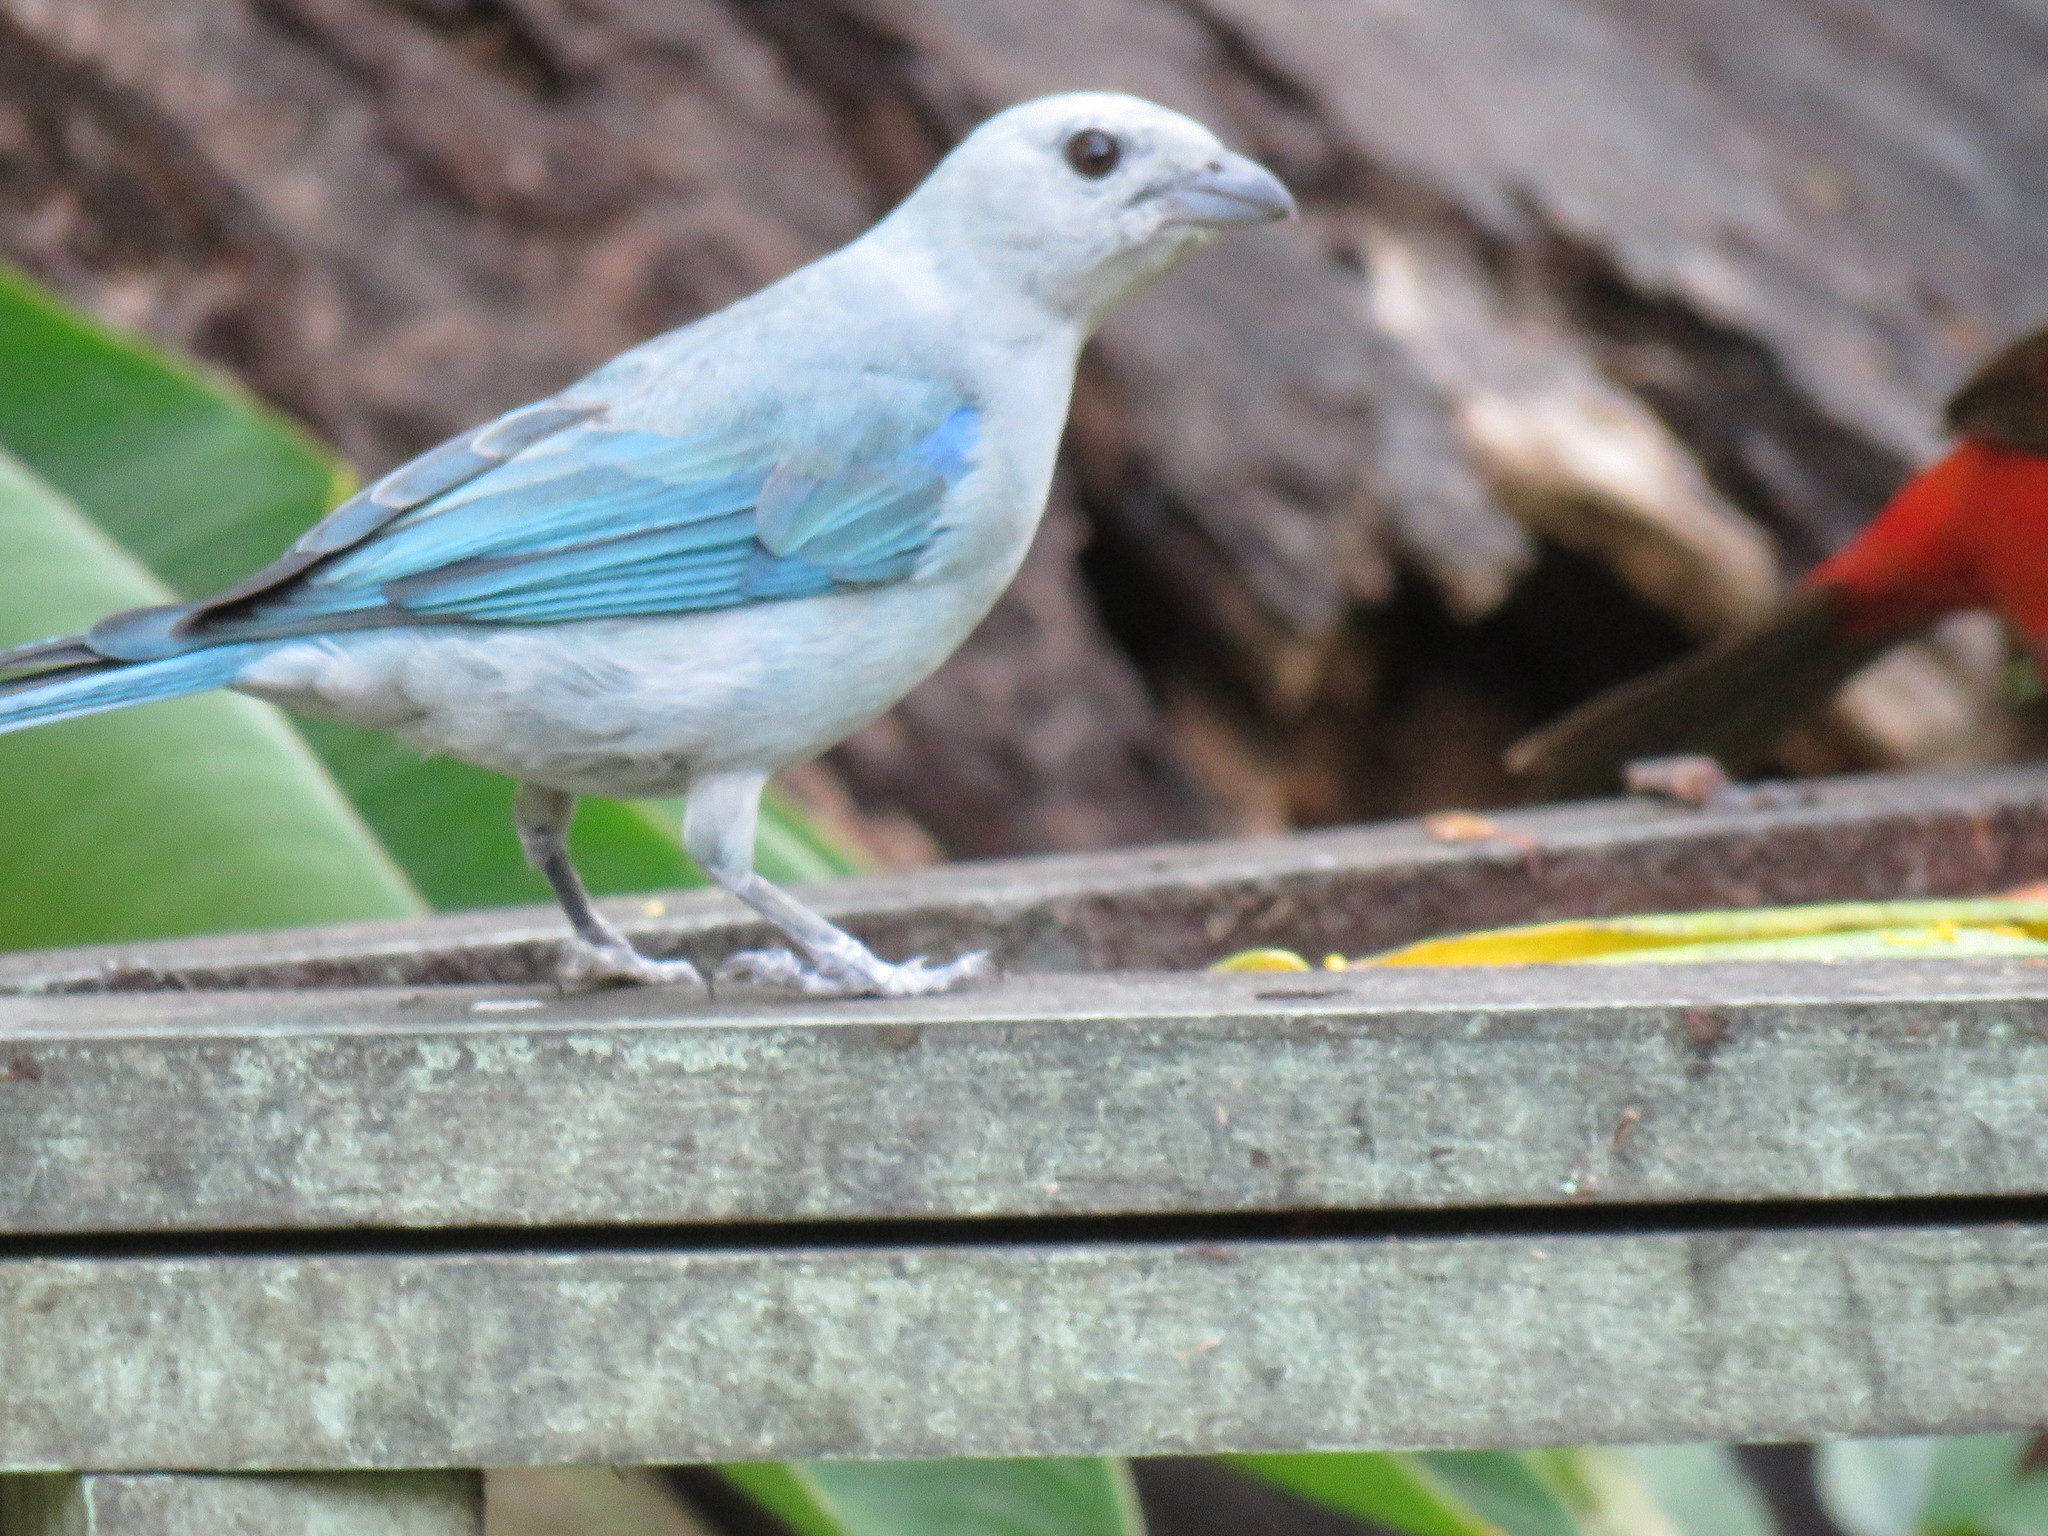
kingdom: Animalia
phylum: Chordata
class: Aves
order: Passeriformes
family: Thraupidae
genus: Thraupis
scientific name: Thraupis episcopus
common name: Blue-grey tanager
